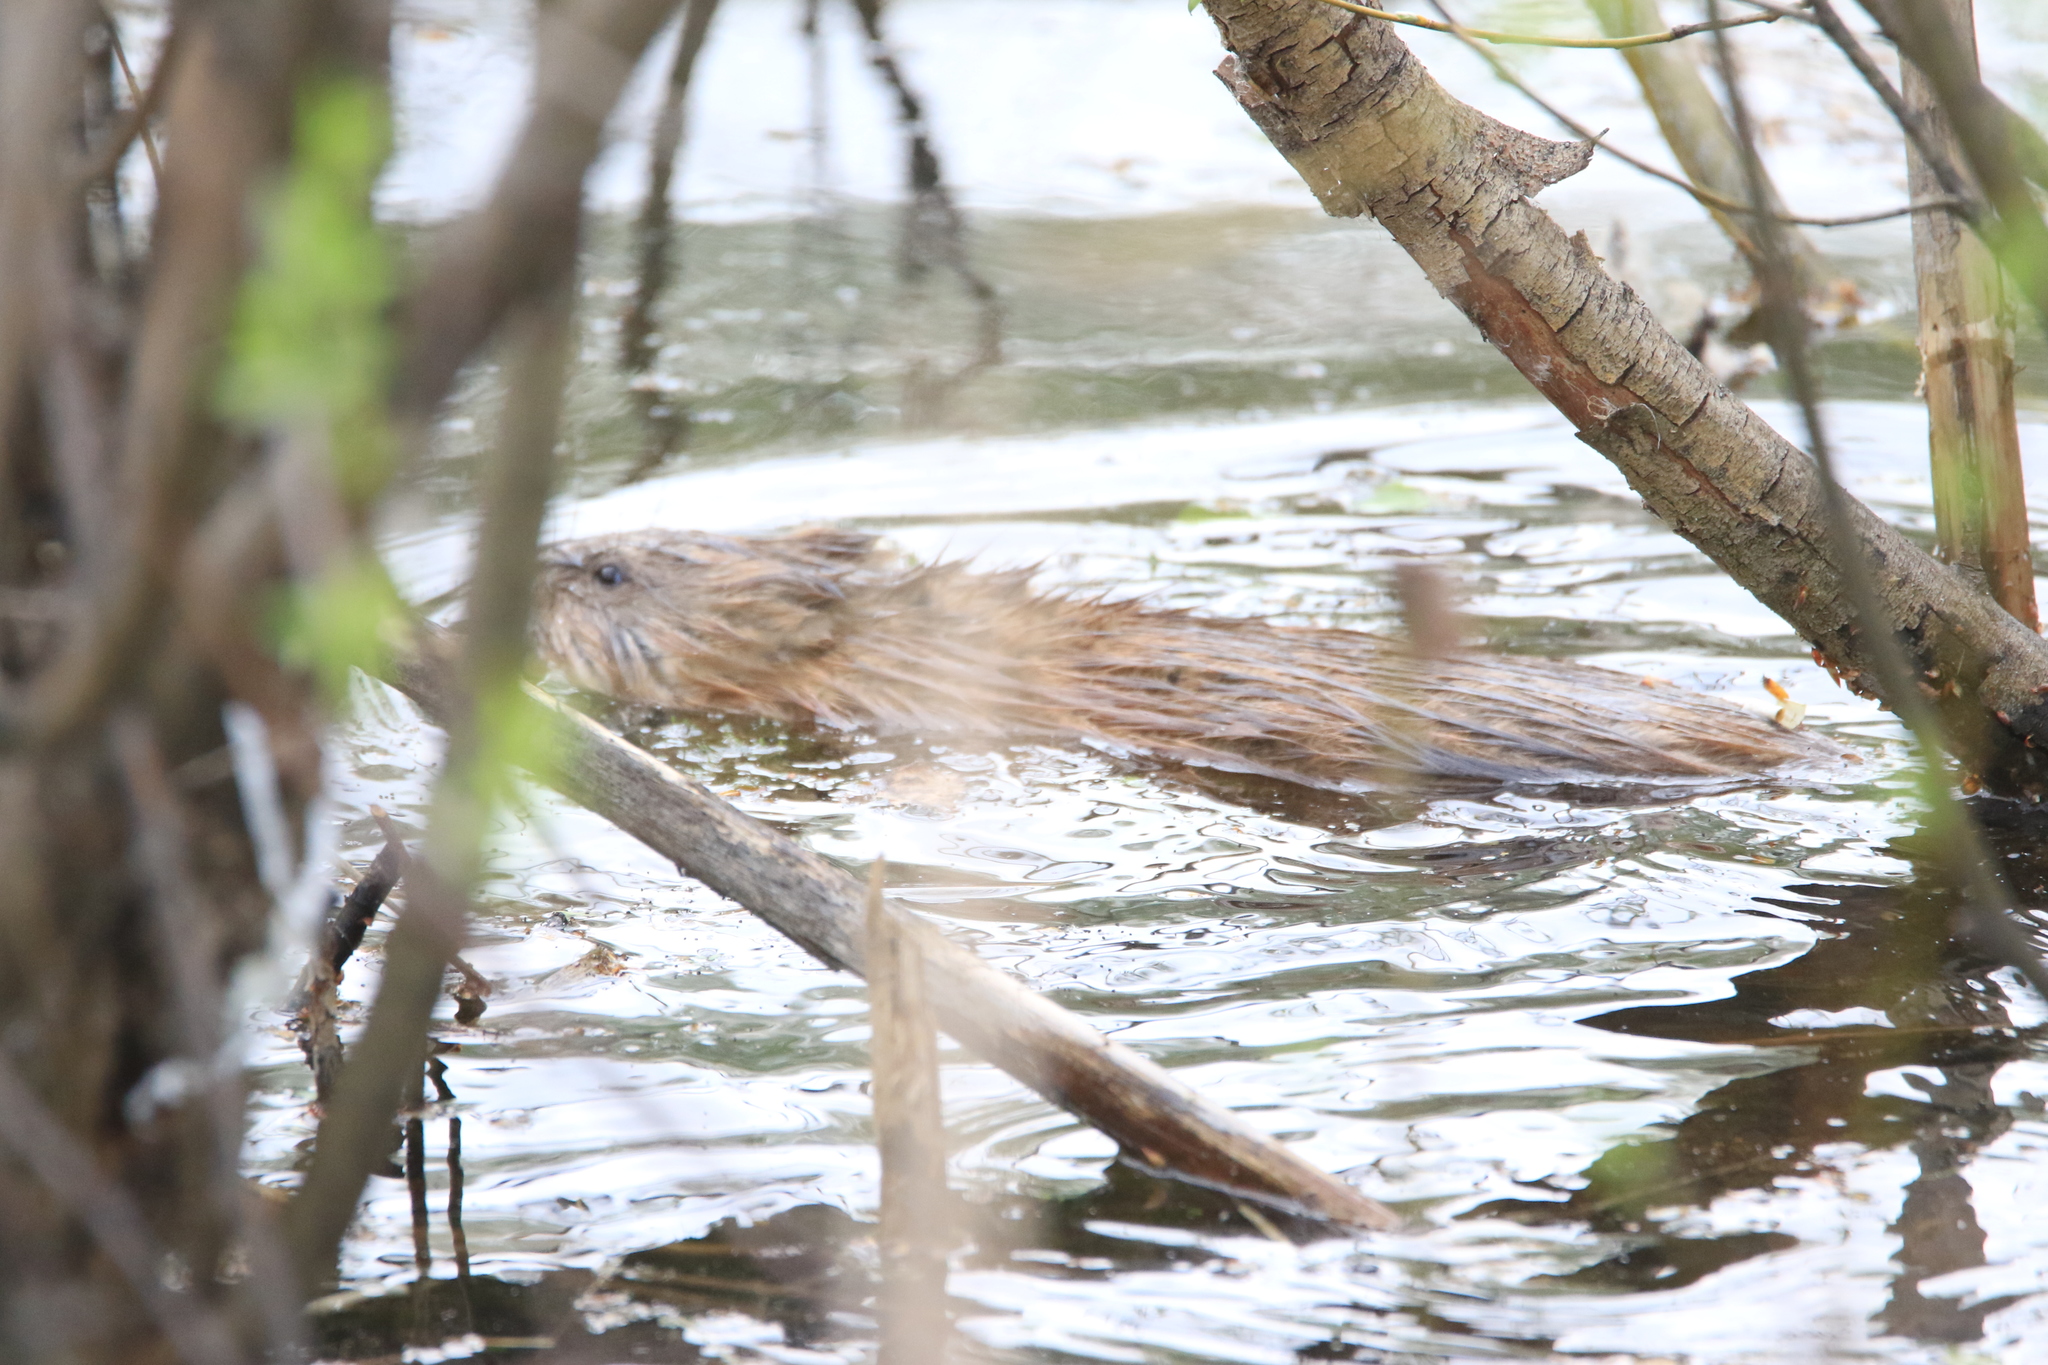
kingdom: Animalia
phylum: Chordata
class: Mammalia
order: Rodentia
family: Cricetidae
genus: Ondatra
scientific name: Ondatra zibethicus
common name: Muskrat
